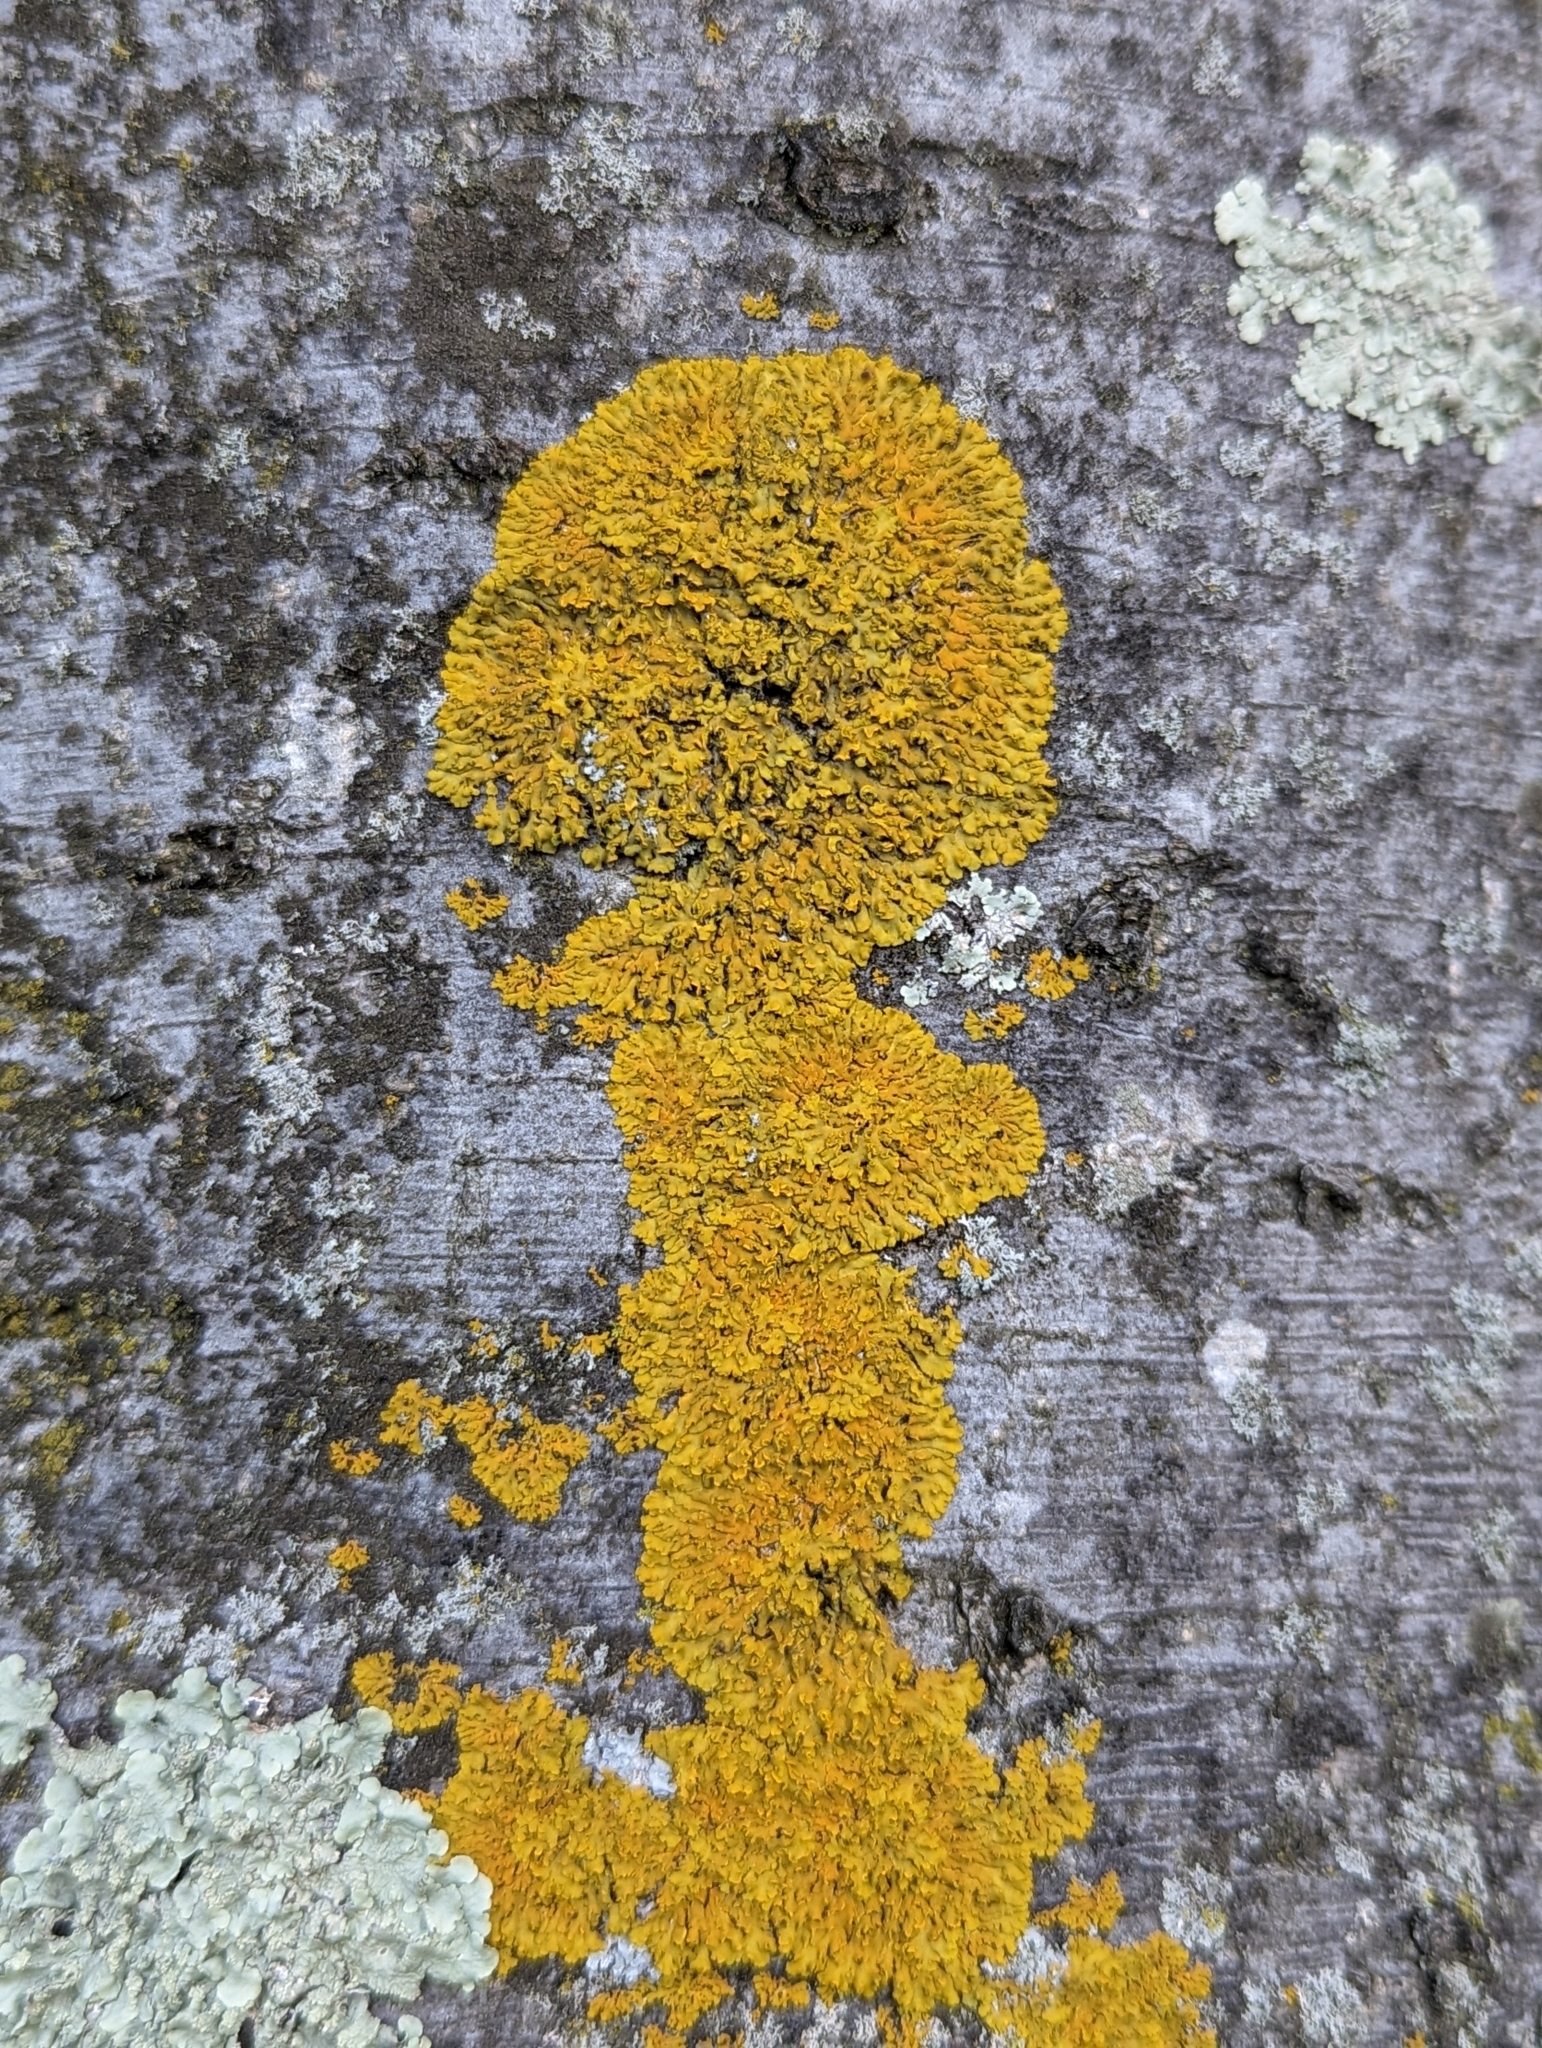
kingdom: Fungi
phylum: Ascomycota
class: Lecanoromycetes
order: Teloschistales
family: Teloschistaceae
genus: Oxneria
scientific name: Oxneria fallax
